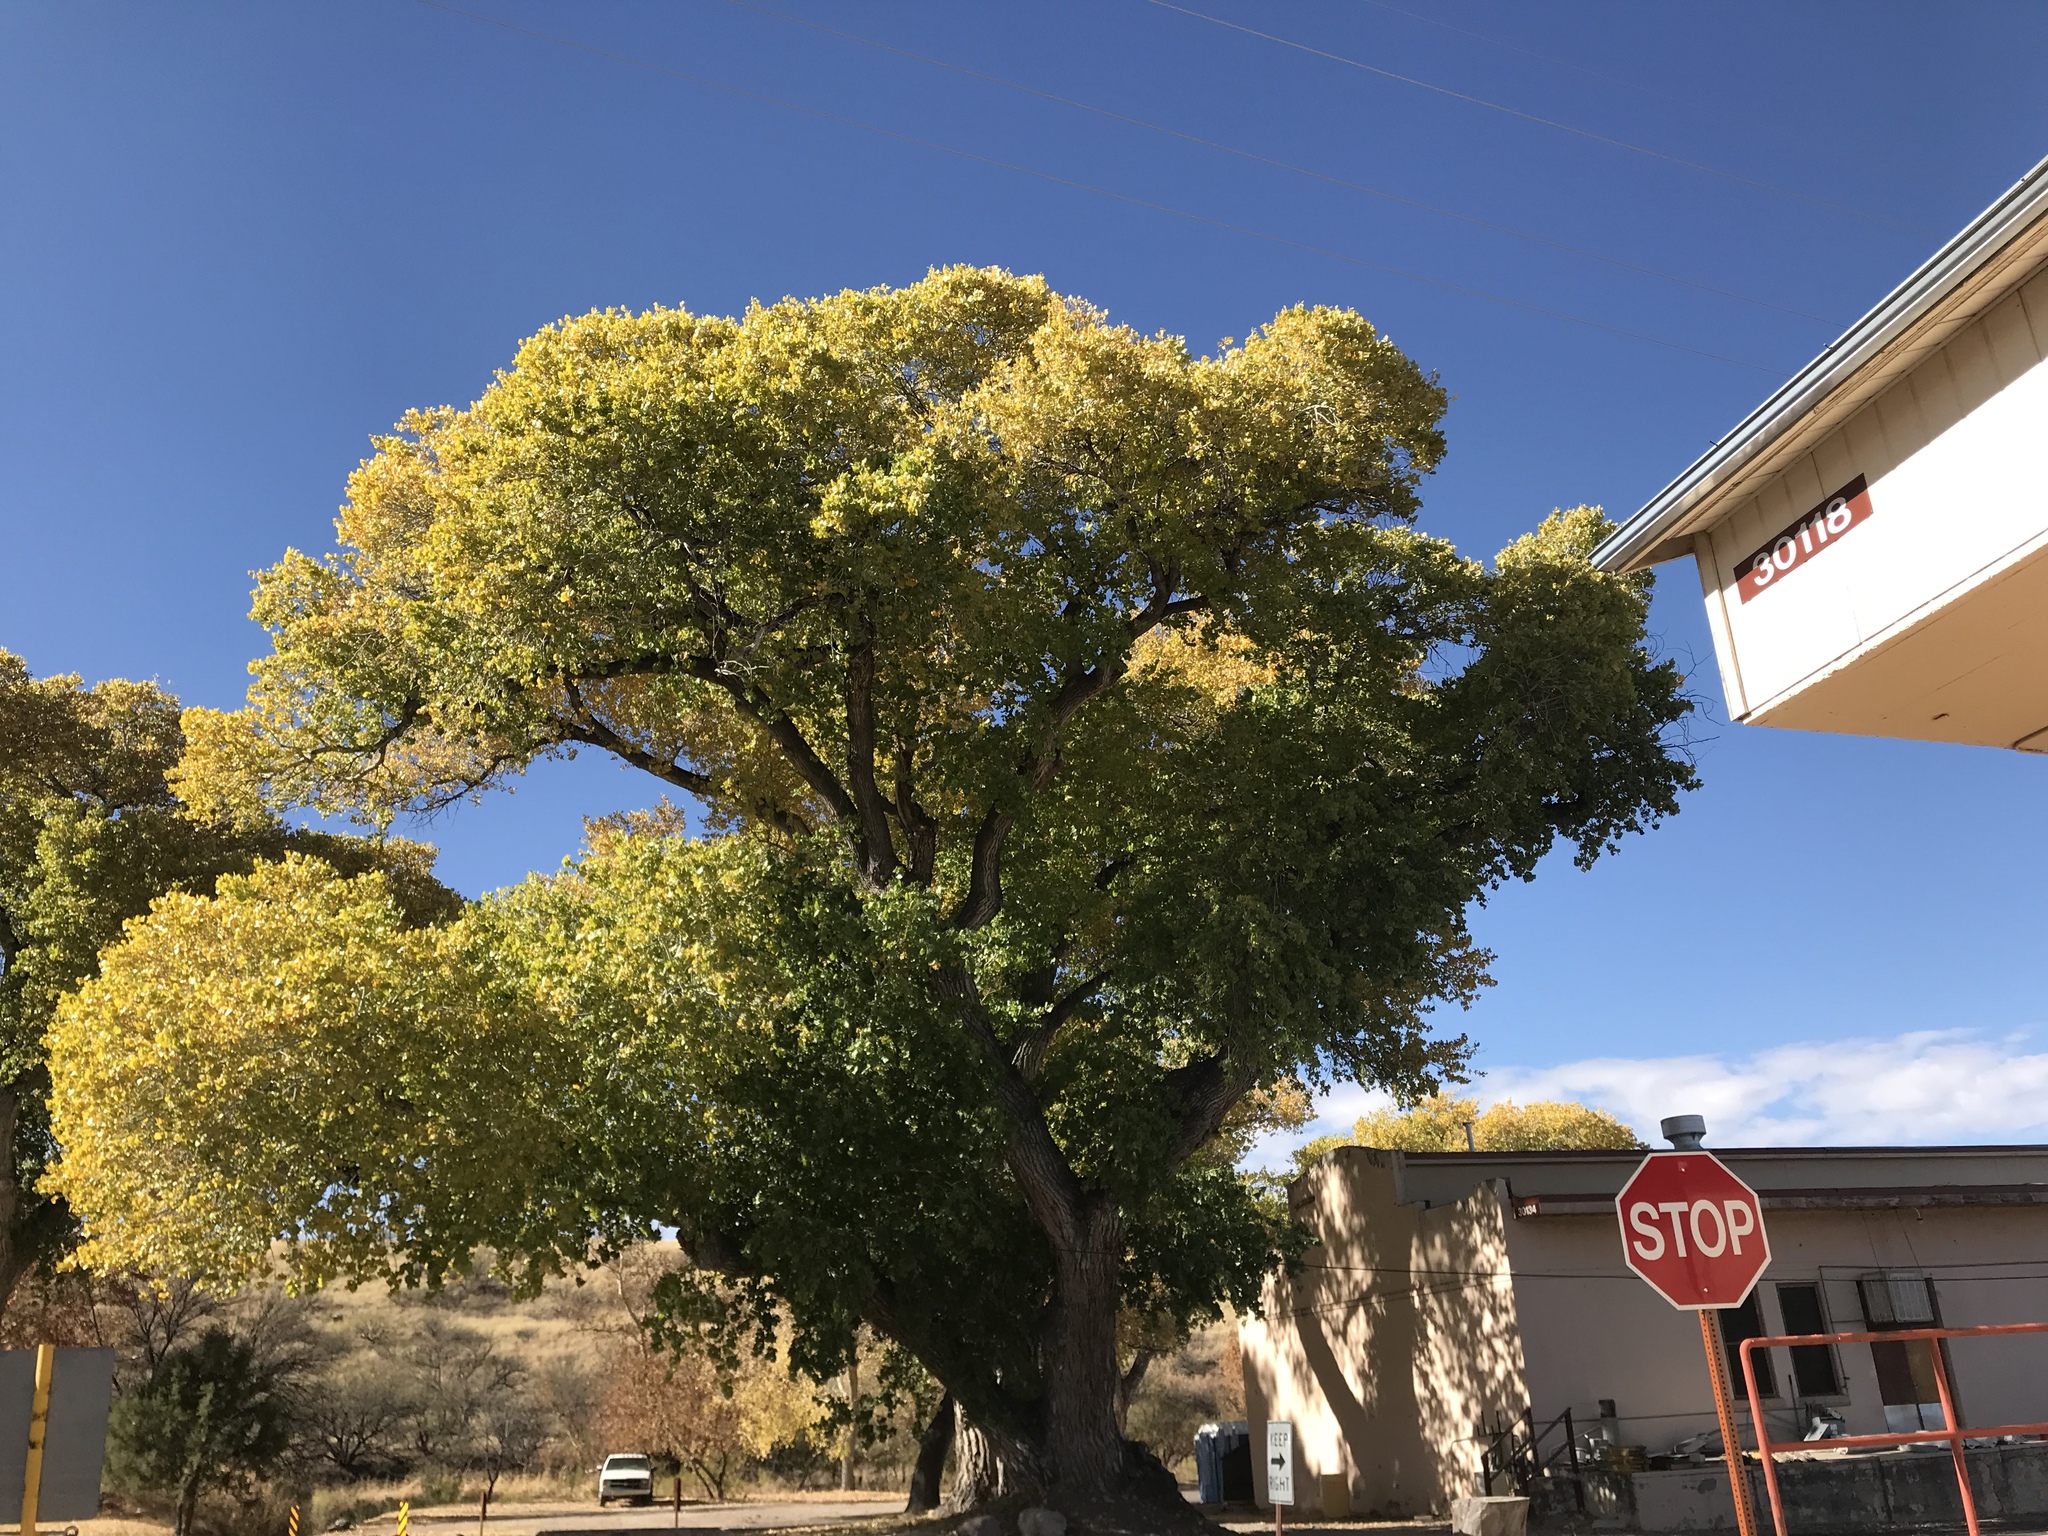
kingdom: Plantae
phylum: Tracheophyta
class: Magnoliopsida
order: Malpighiales
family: Salicaceae
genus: Populus
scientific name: Populus fremontii
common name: Fremont's cottonwood
